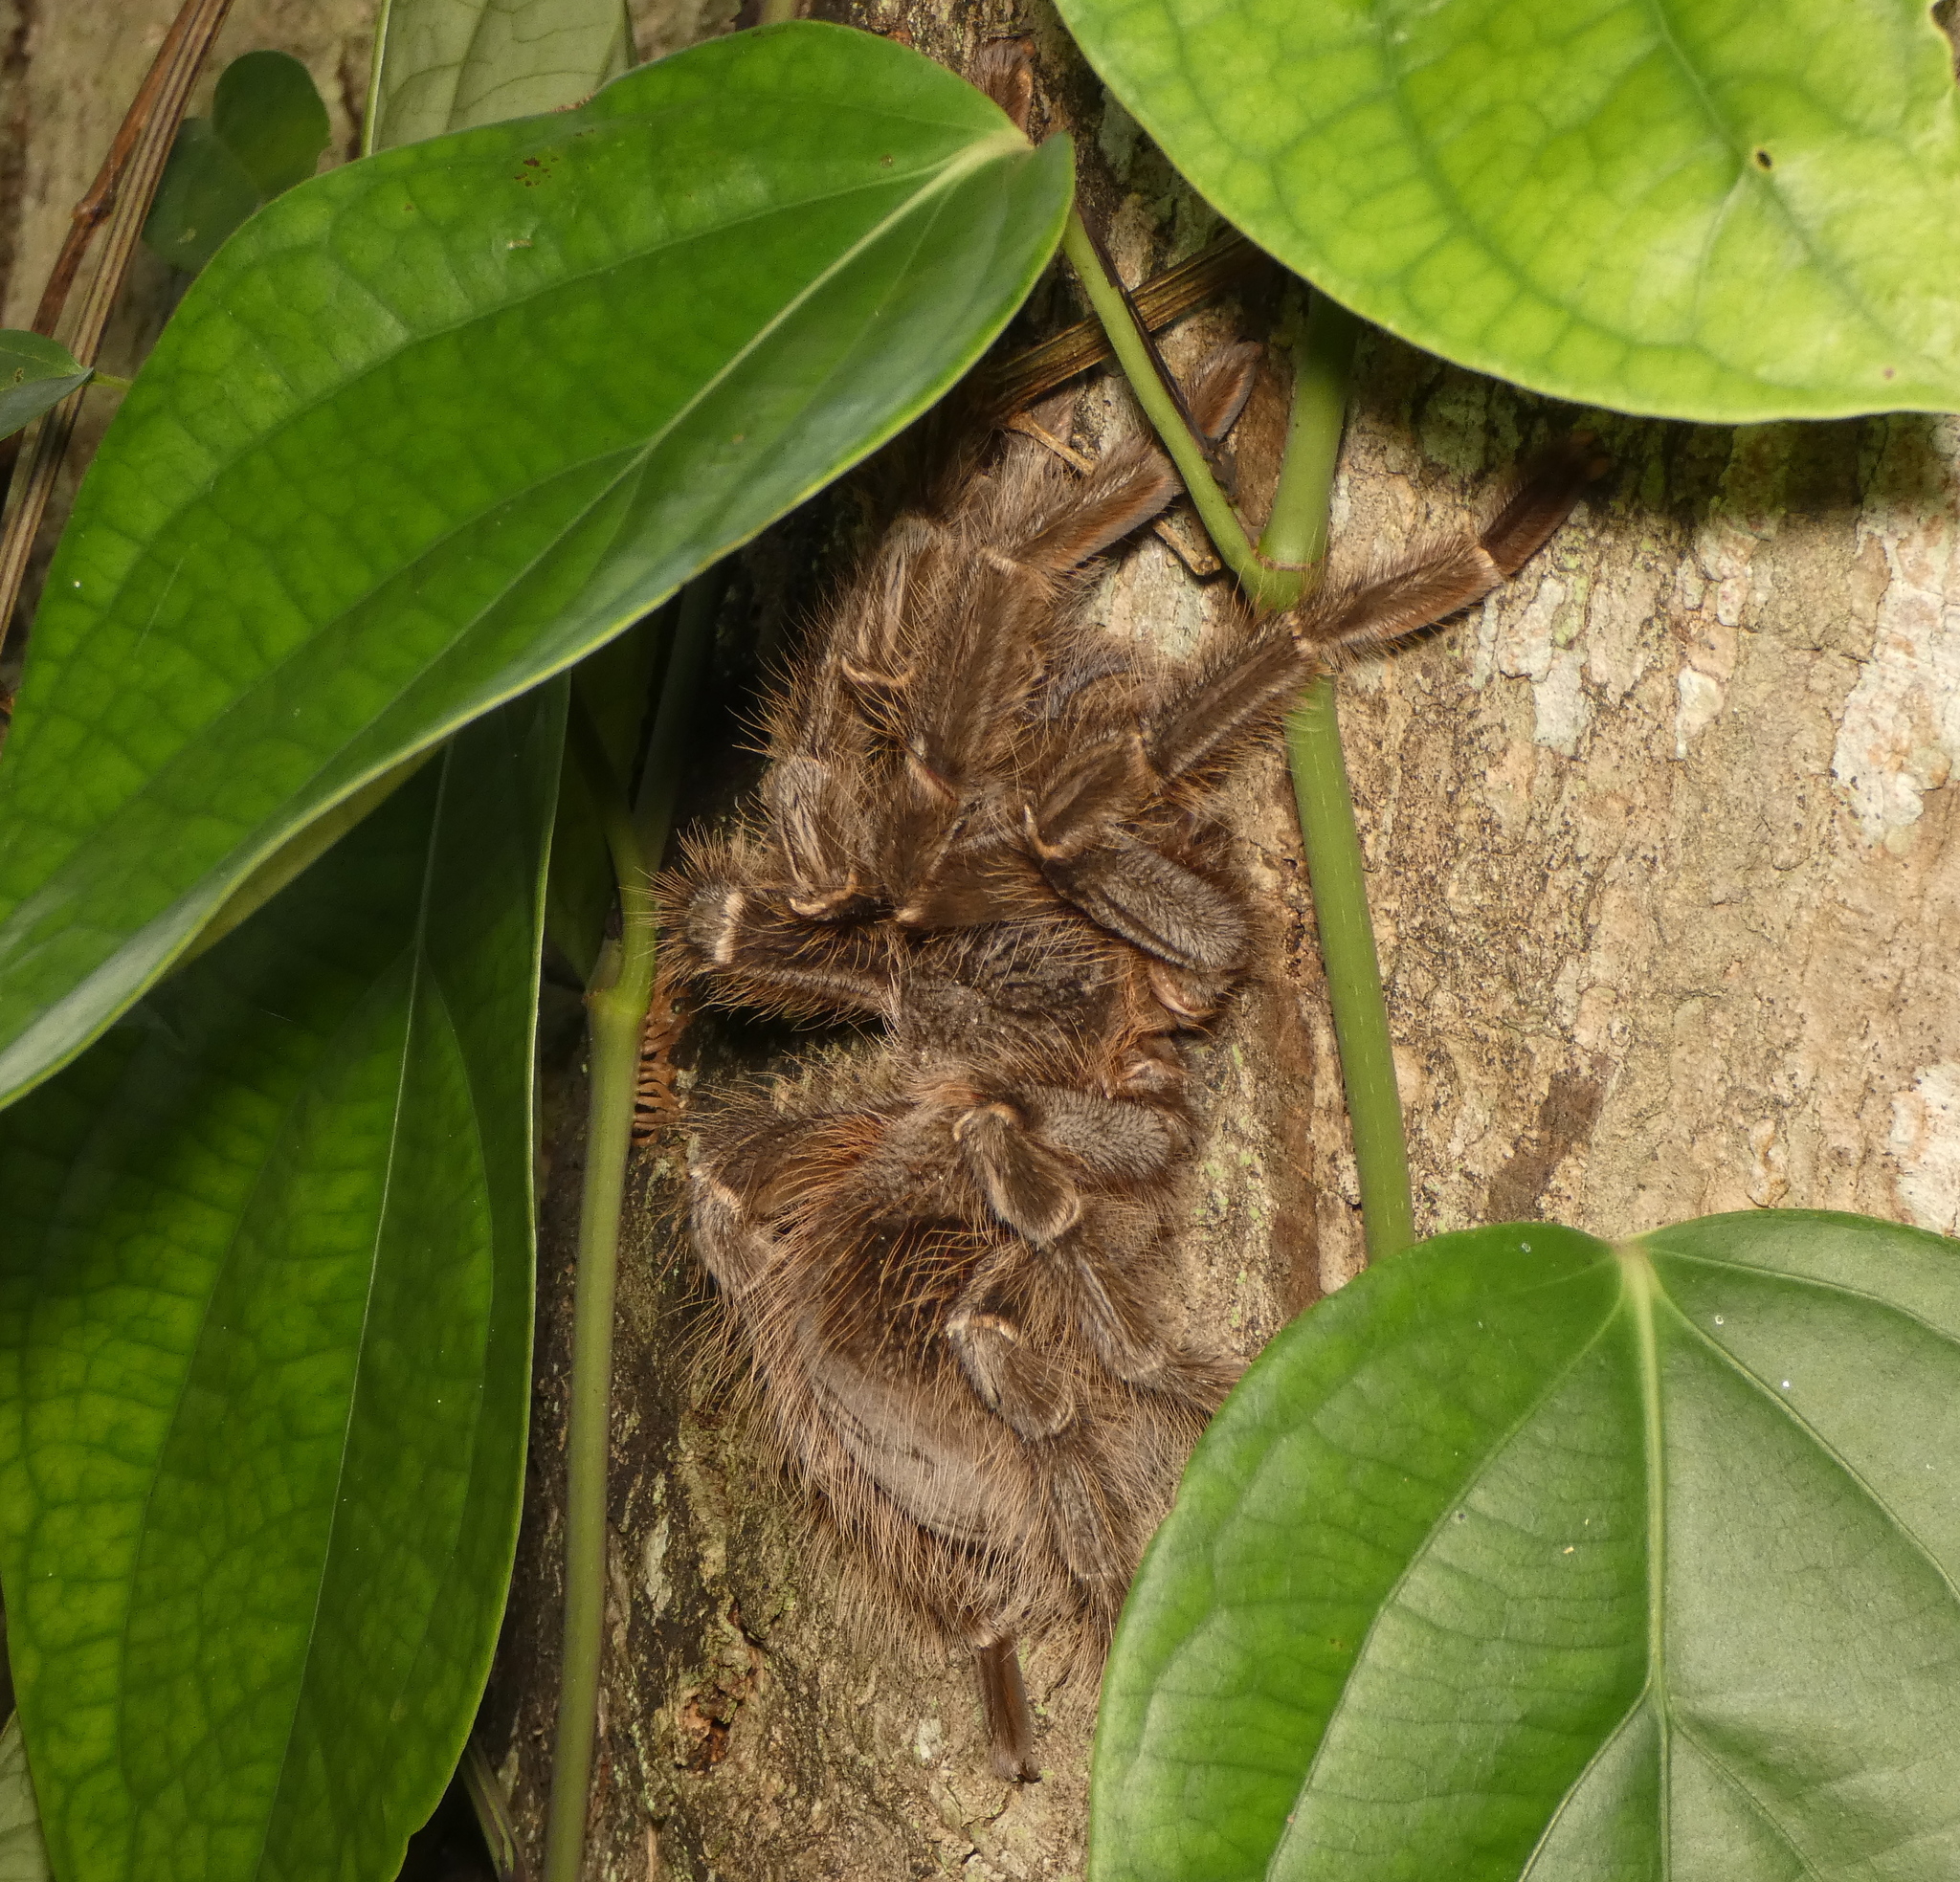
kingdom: Animalia
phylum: Arthropoda
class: Arachnida
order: Araneae
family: Theraphosidae
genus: Lasiodora
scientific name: Lasiodora parahybana
